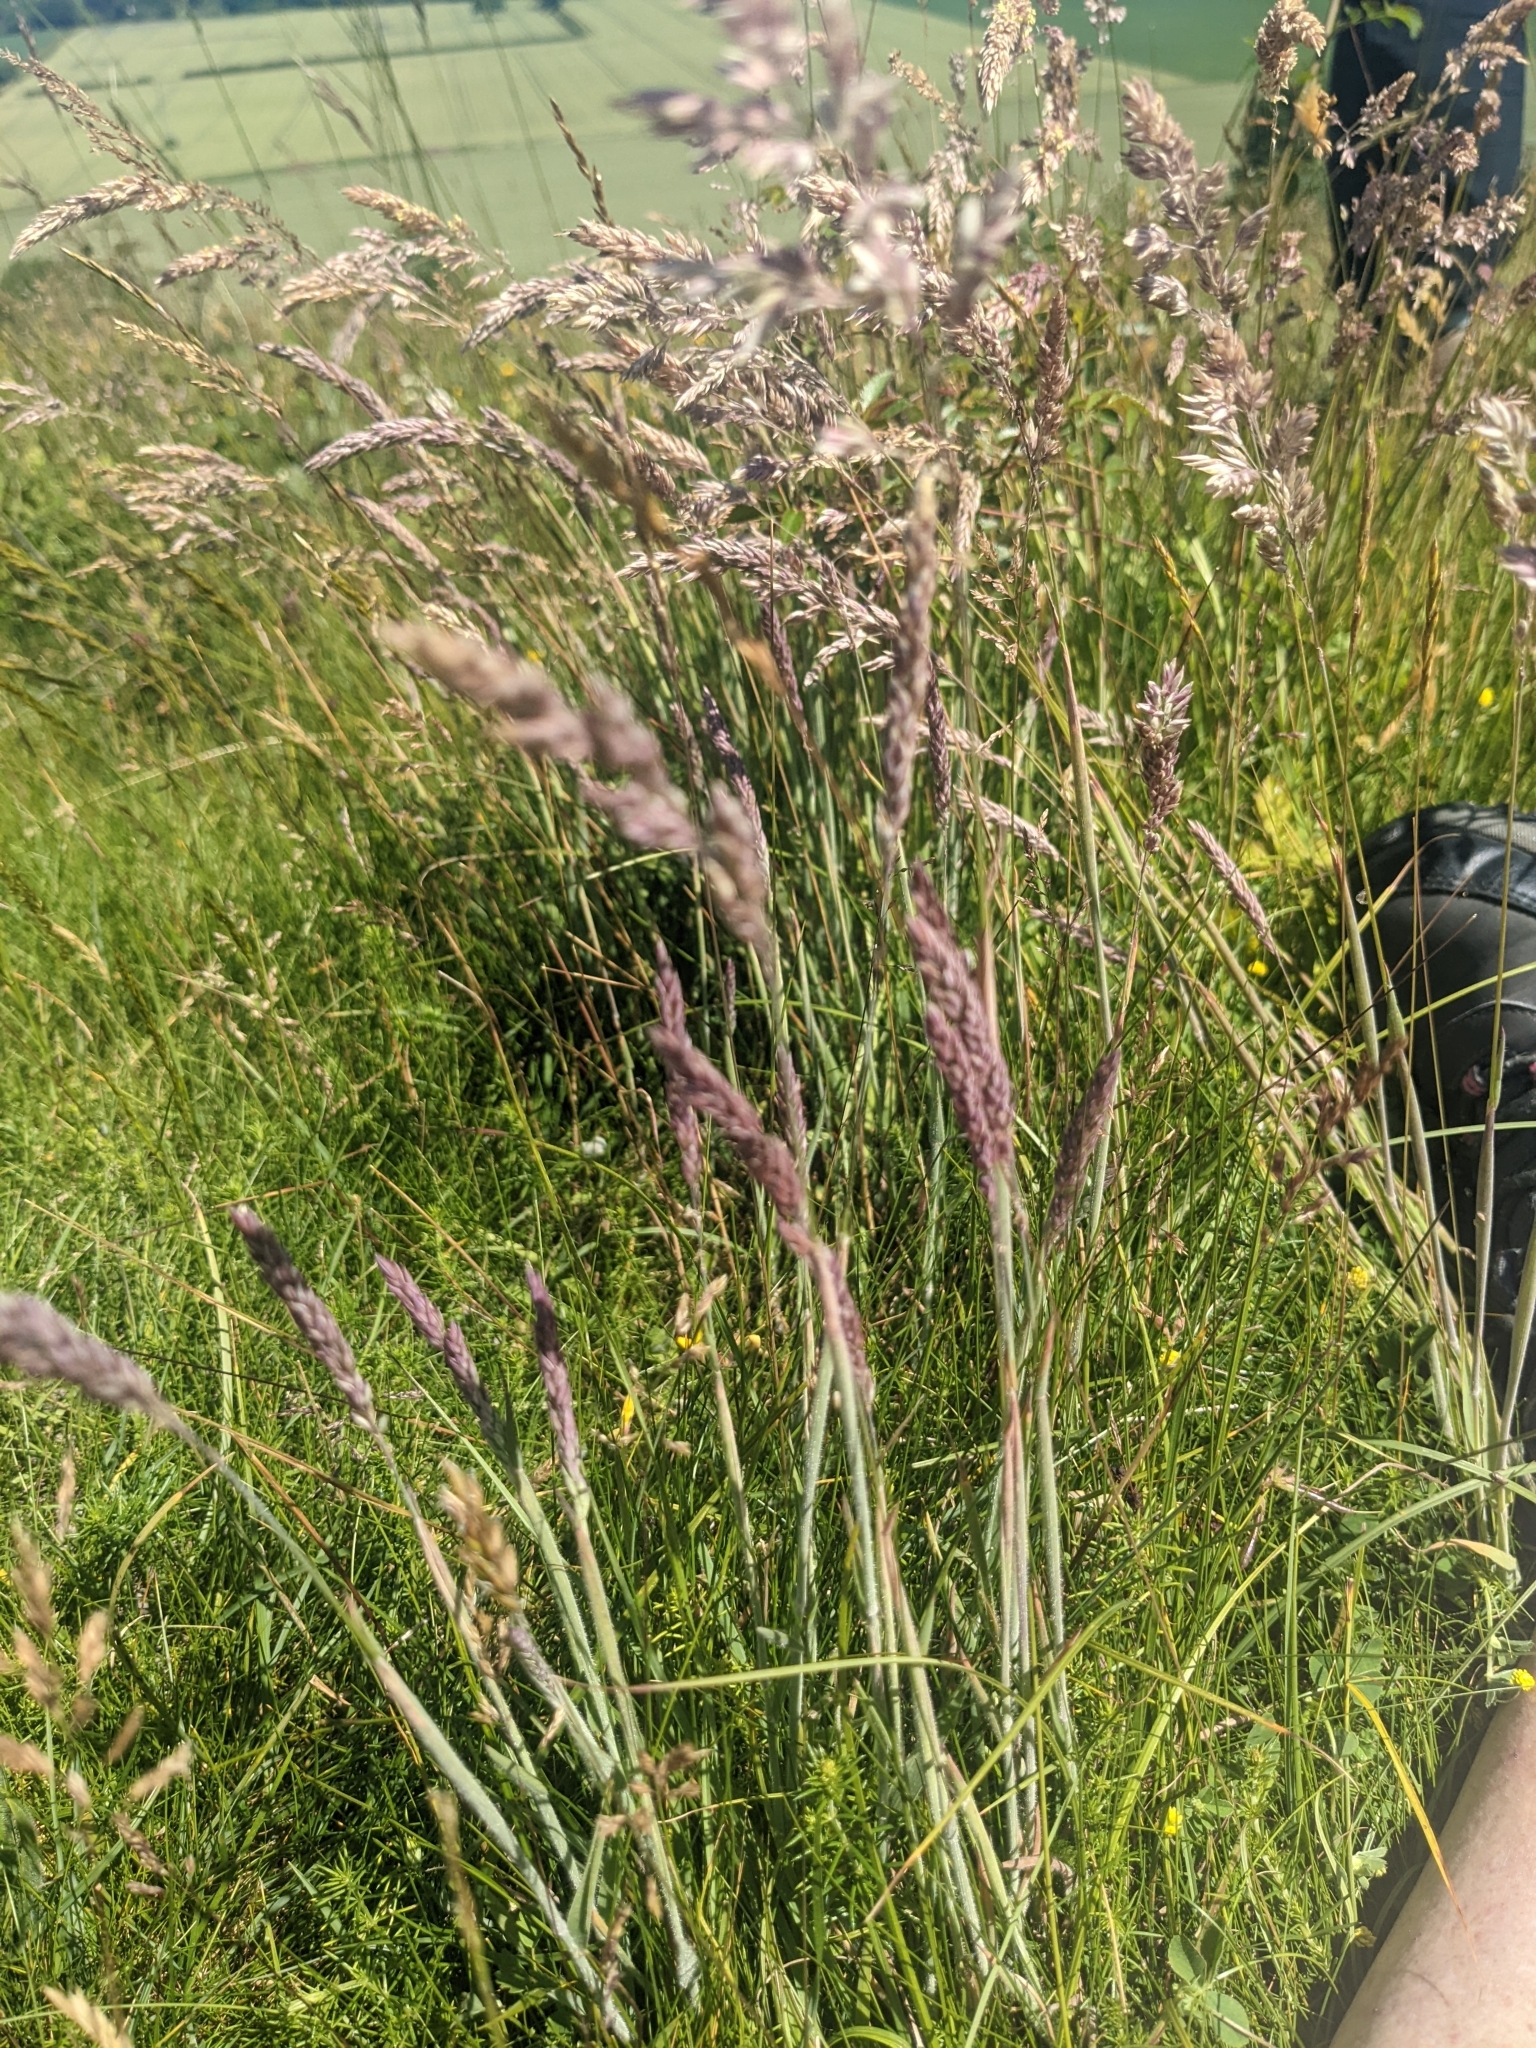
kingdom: Plantae
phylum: Tracheophyta
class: Liliopsida
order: Poales
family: Poaceae
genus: Holcus
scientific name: Holcus lanatus
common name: Yorkshire-fog
